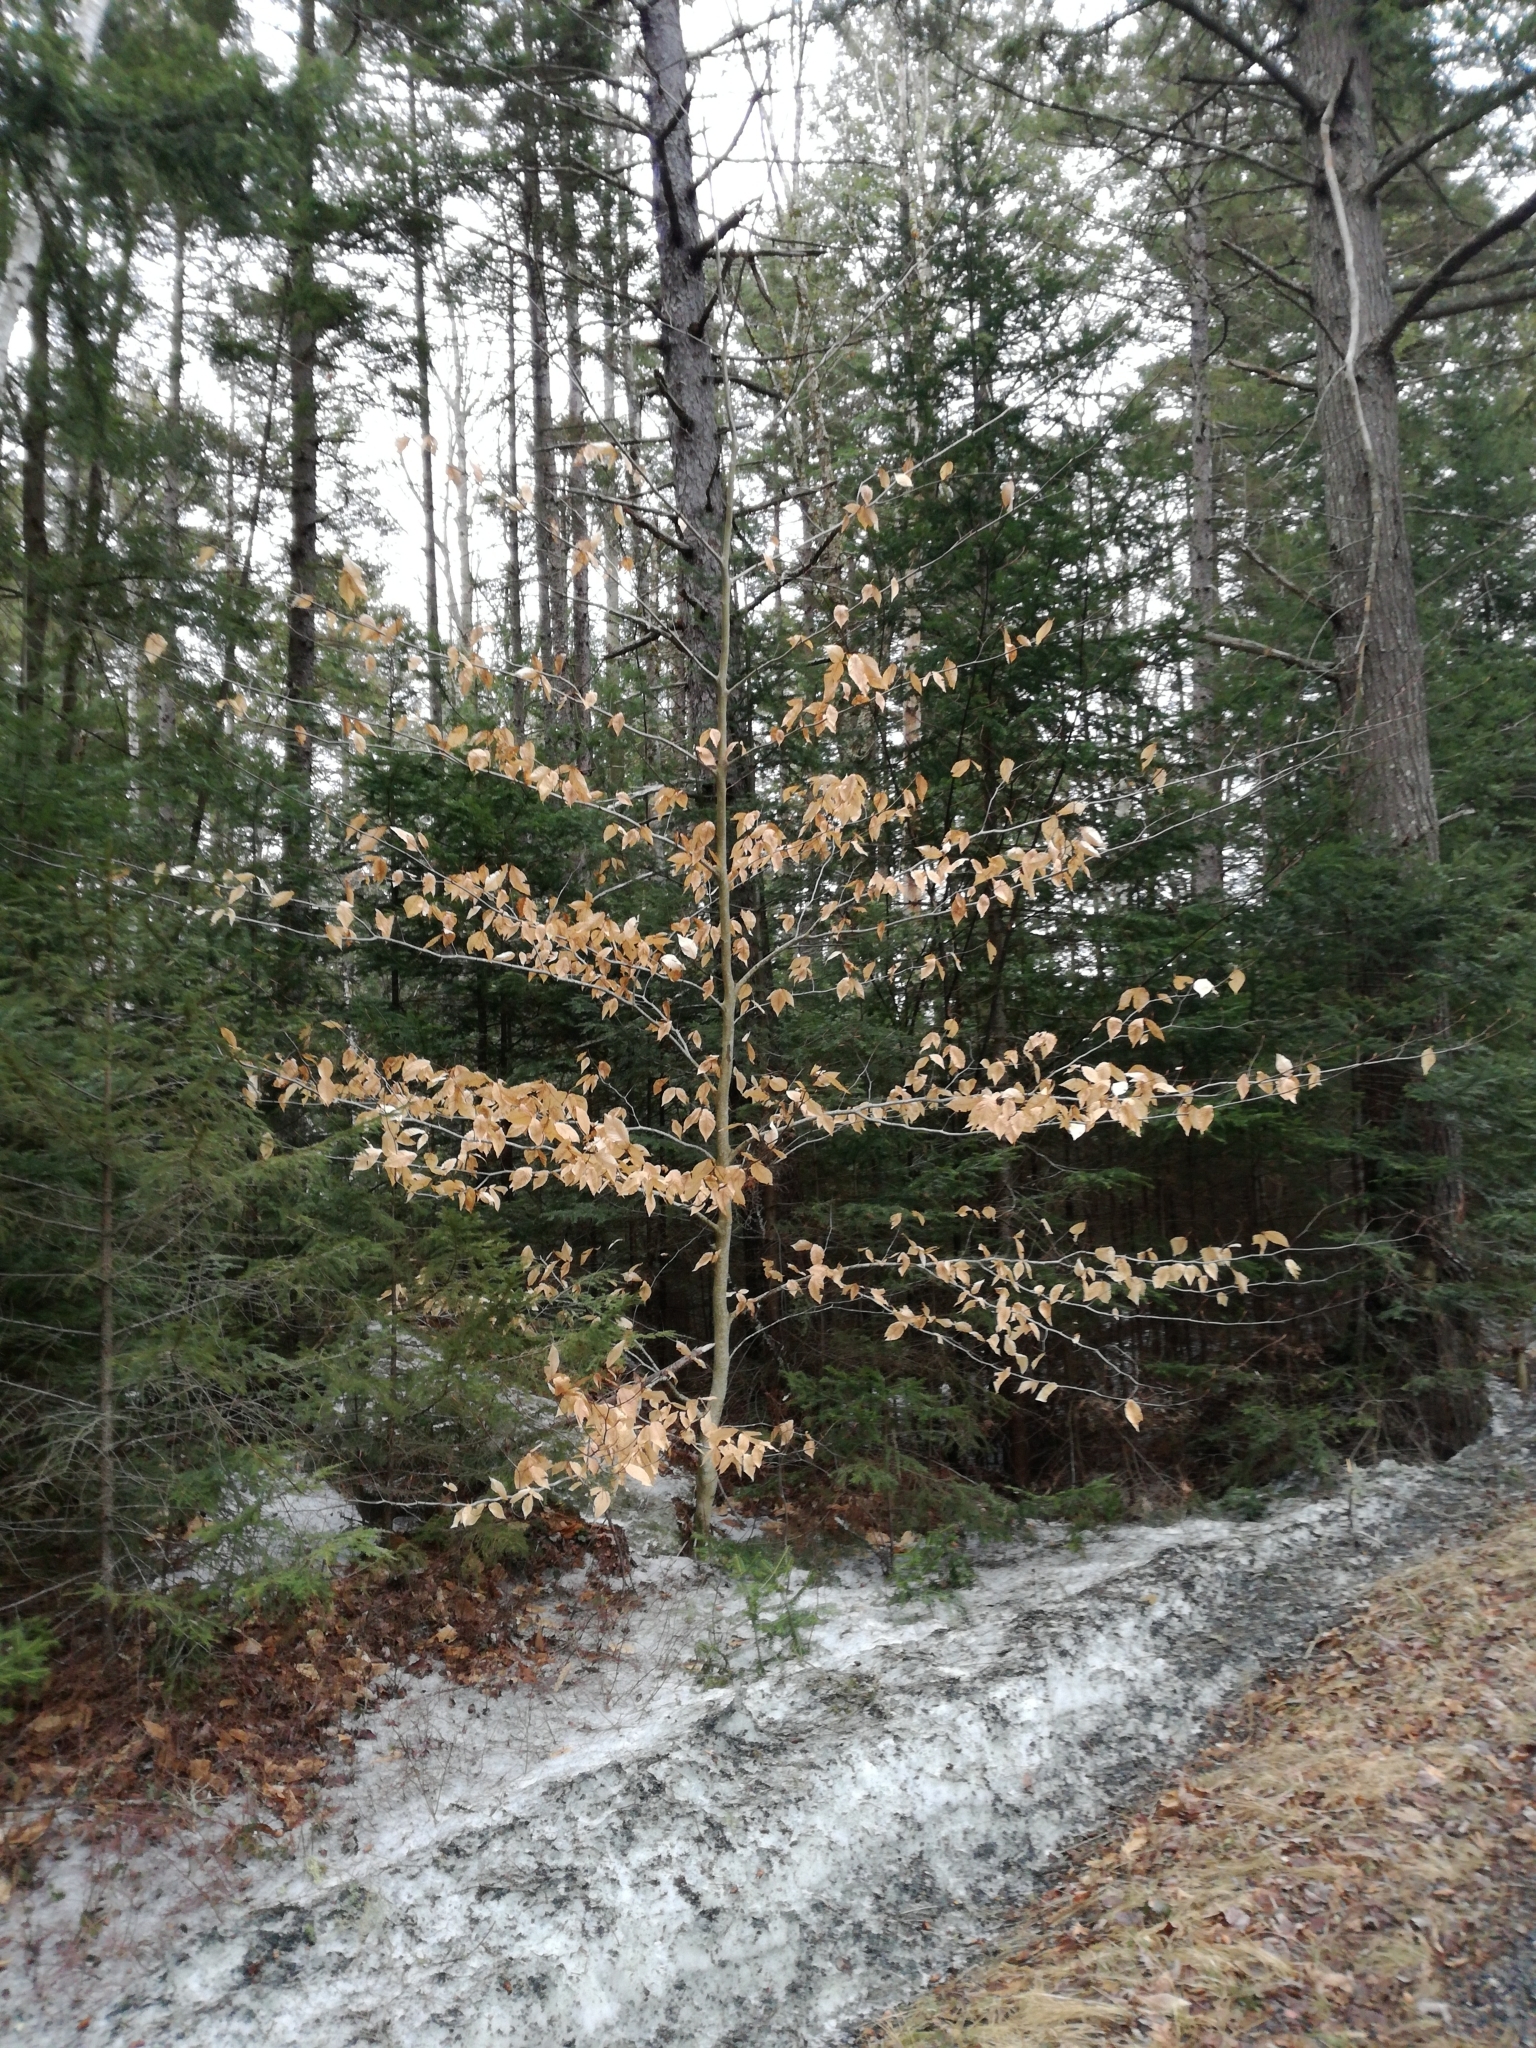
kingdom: Plantae
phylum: Tracheophyta
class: Magnoliopsida
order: Fagales
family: Fagaceae
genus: Fagus
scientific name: Fagus grandifolia
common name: American beech
